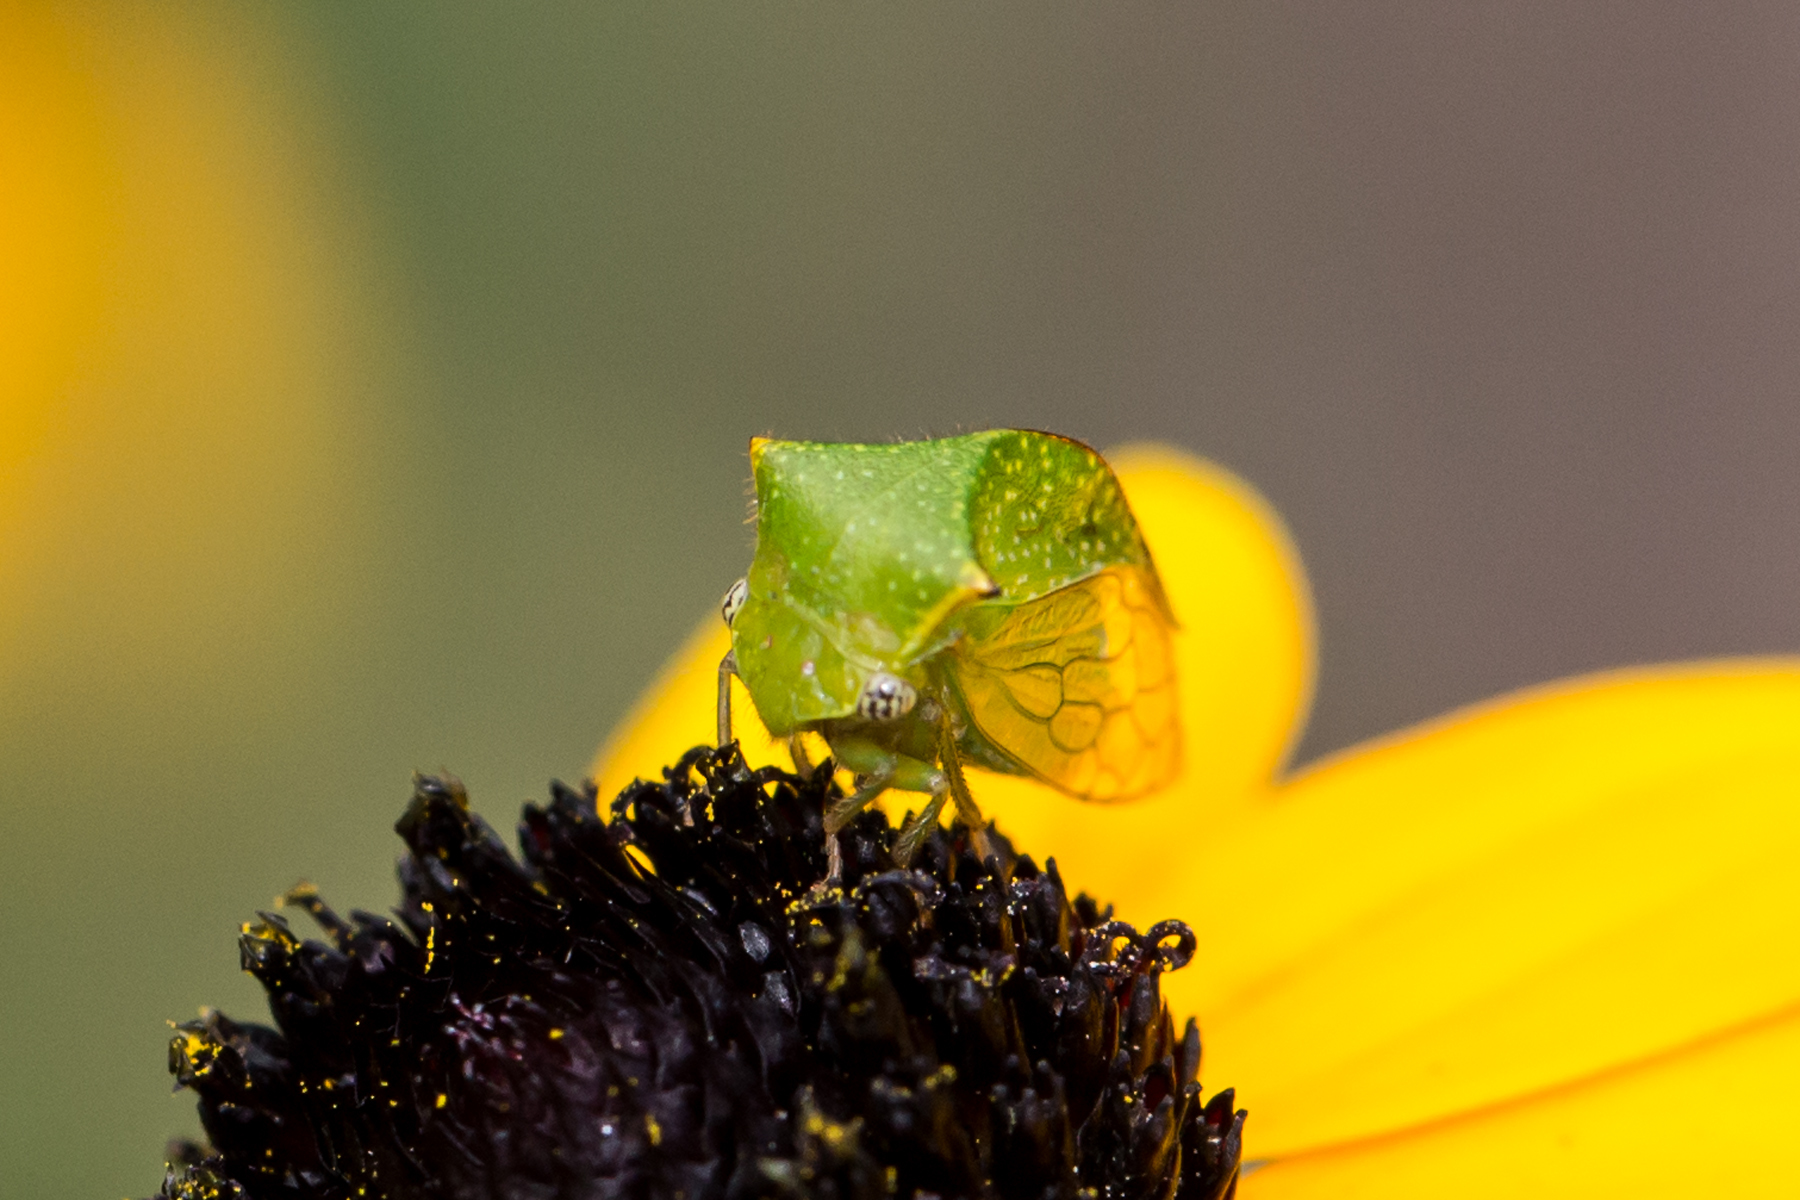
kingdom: Animalia
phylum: Arthropoda
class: Insecta
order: Hemiptera
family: Membracidae
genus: Hadrophallus
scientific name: Hadrophallus
